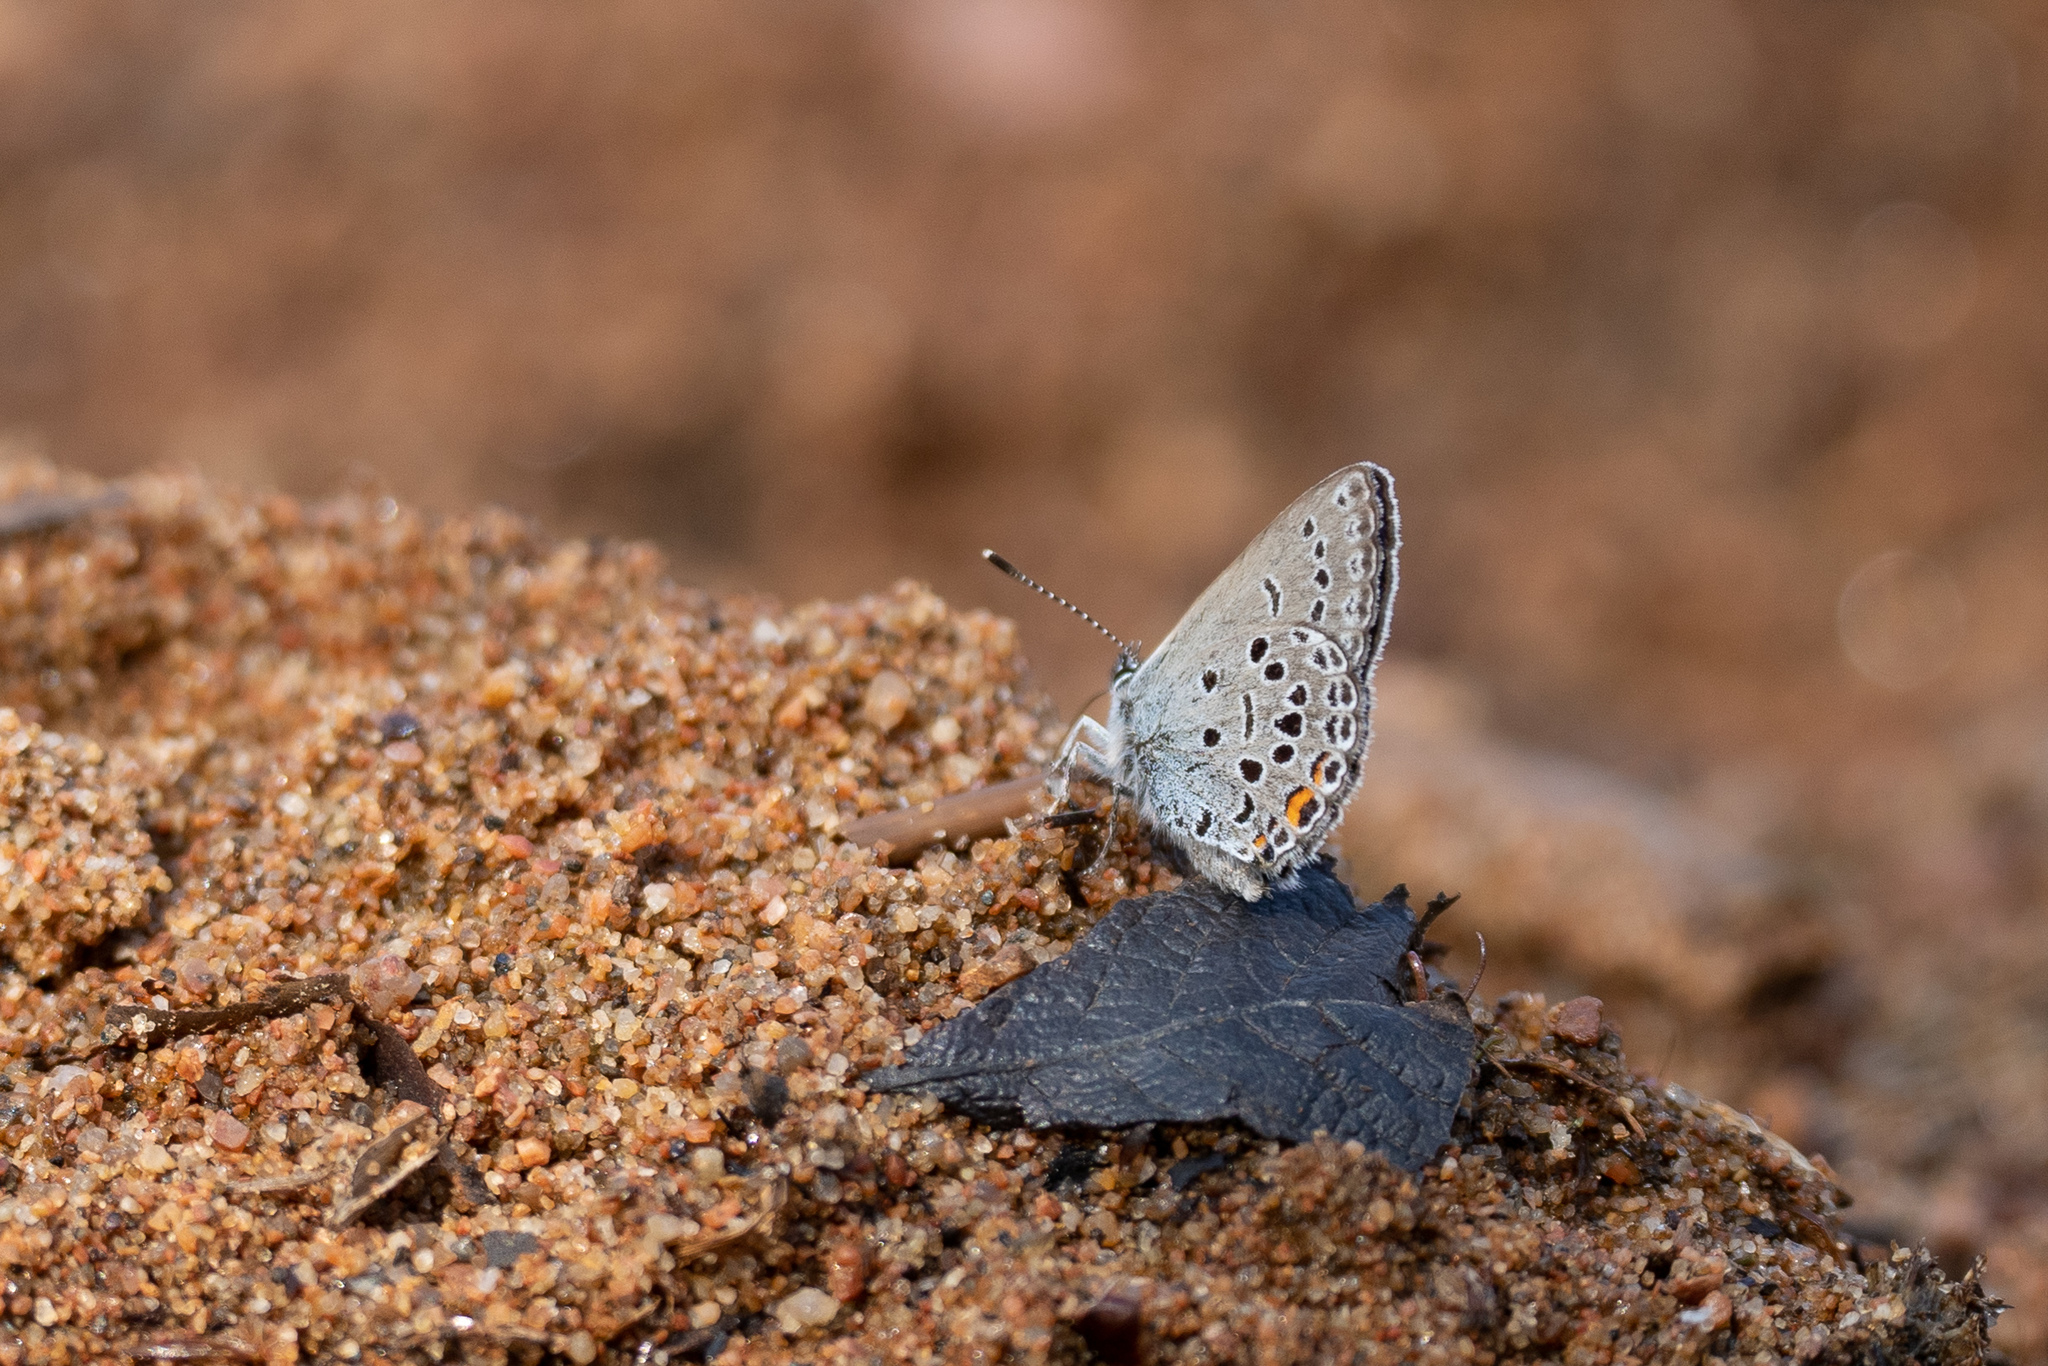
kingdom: Animalia
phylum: Arthropoda
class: Insecta
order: Lepidoptera
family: Lycaenidae
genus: Vacciniina
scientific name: Vacciniina optilete
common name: Cranberry blue
